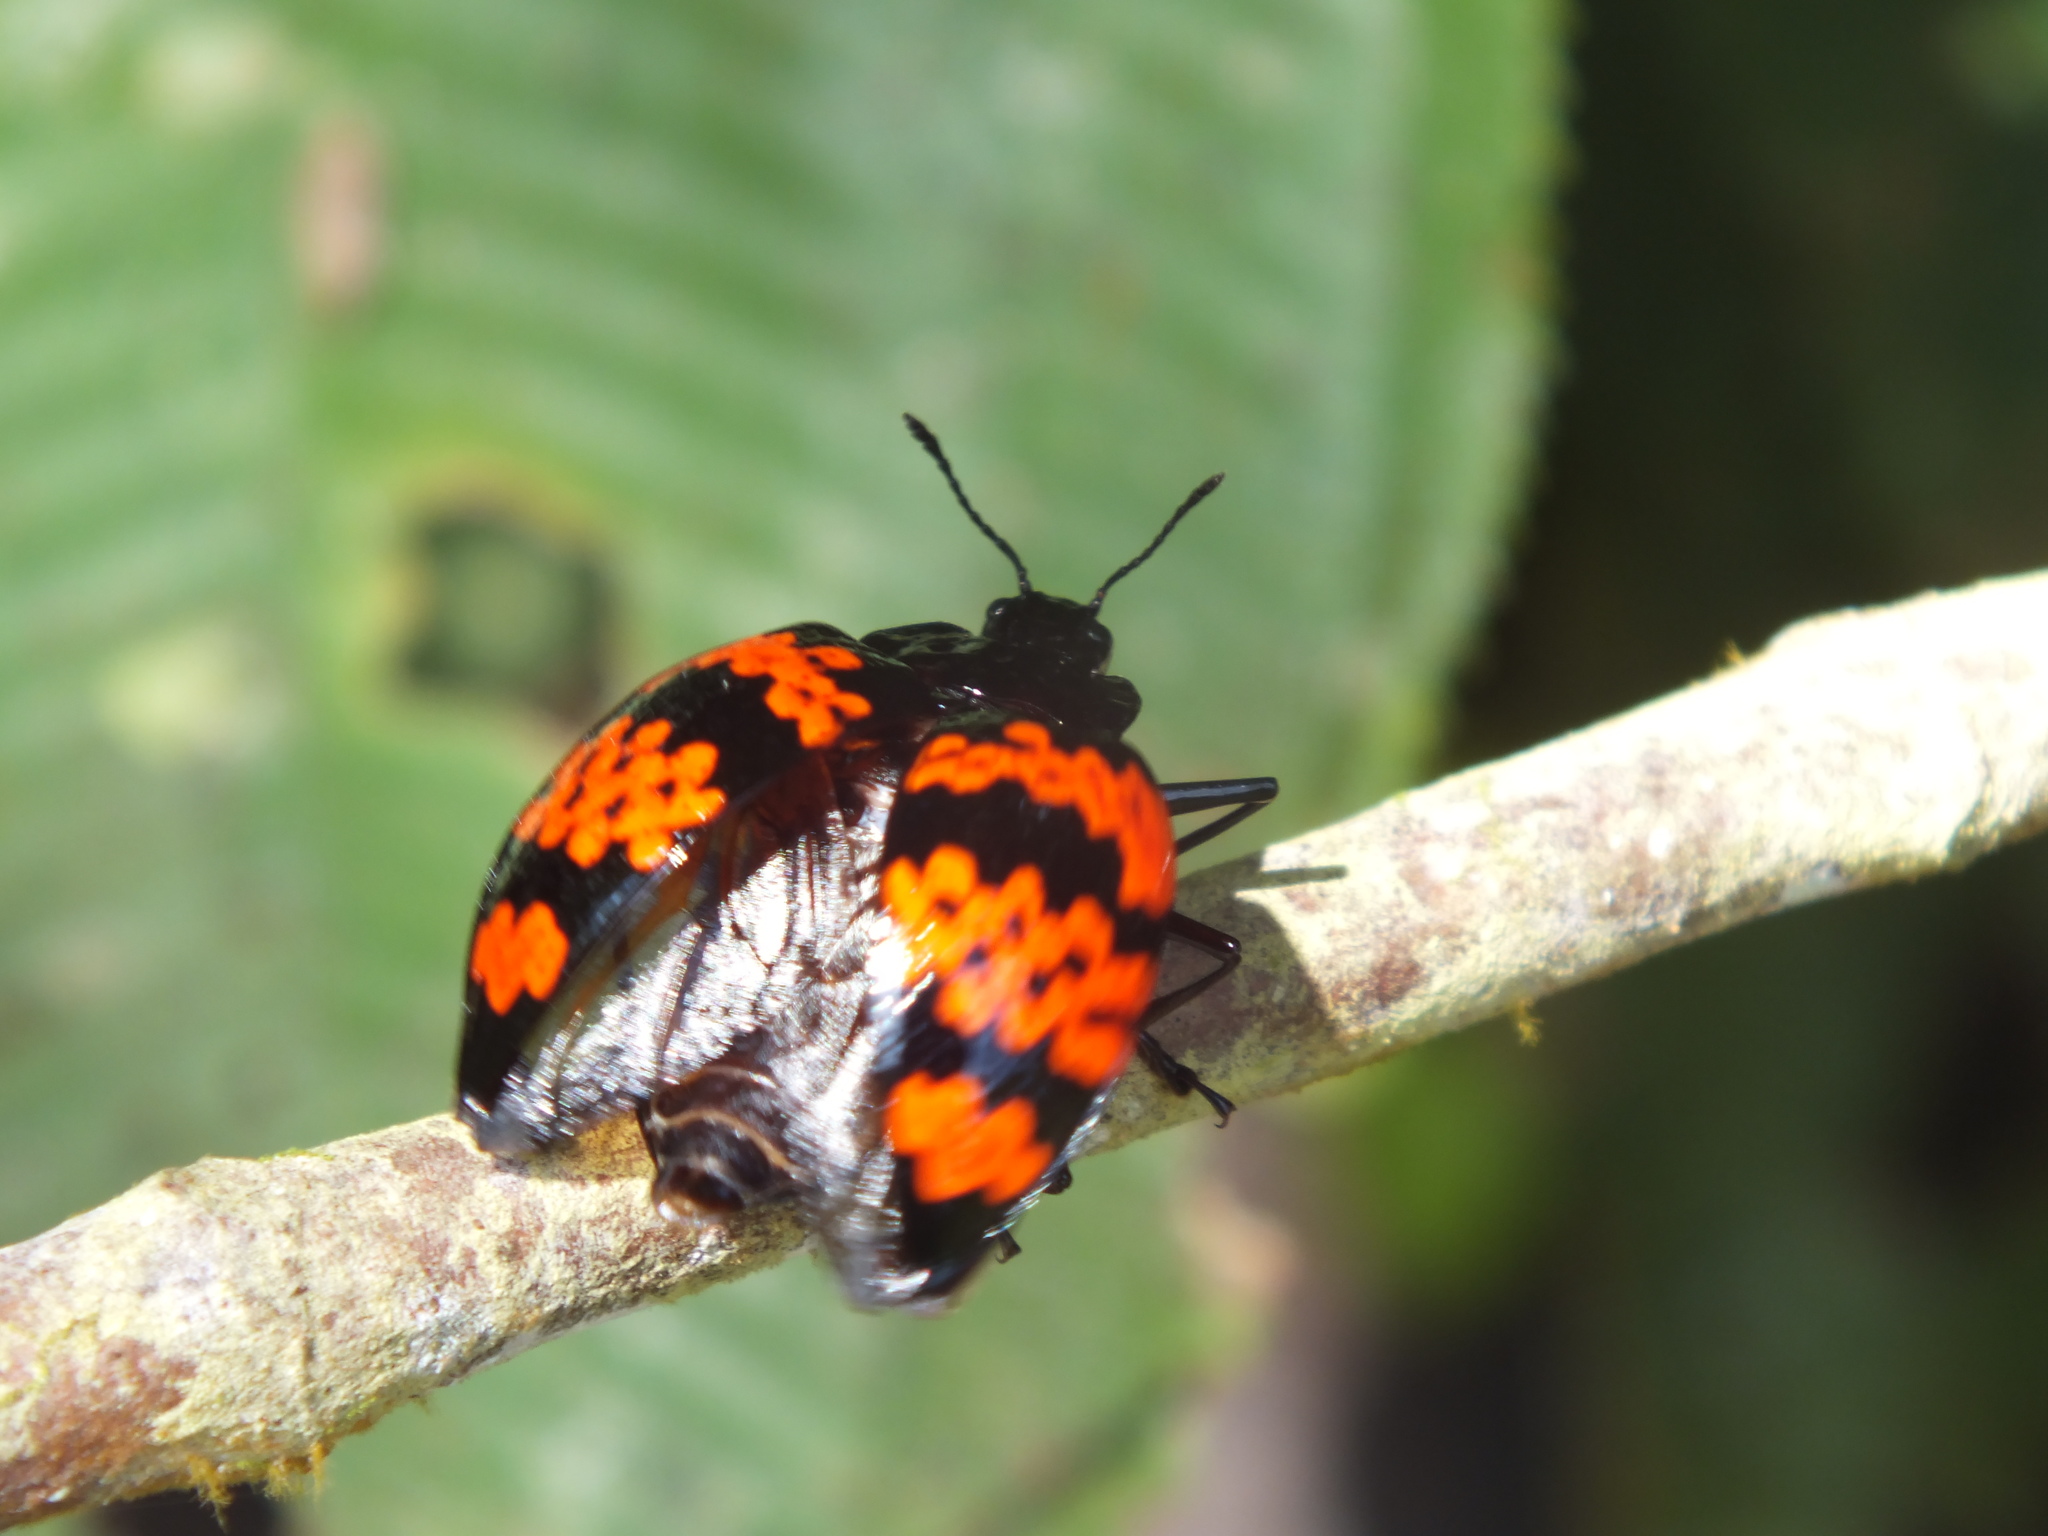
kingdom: Animalia
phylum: Arthropoda
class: Insecta
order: Coleoptera
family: Erotylidae
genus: Erotylus
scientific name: Erotylus
